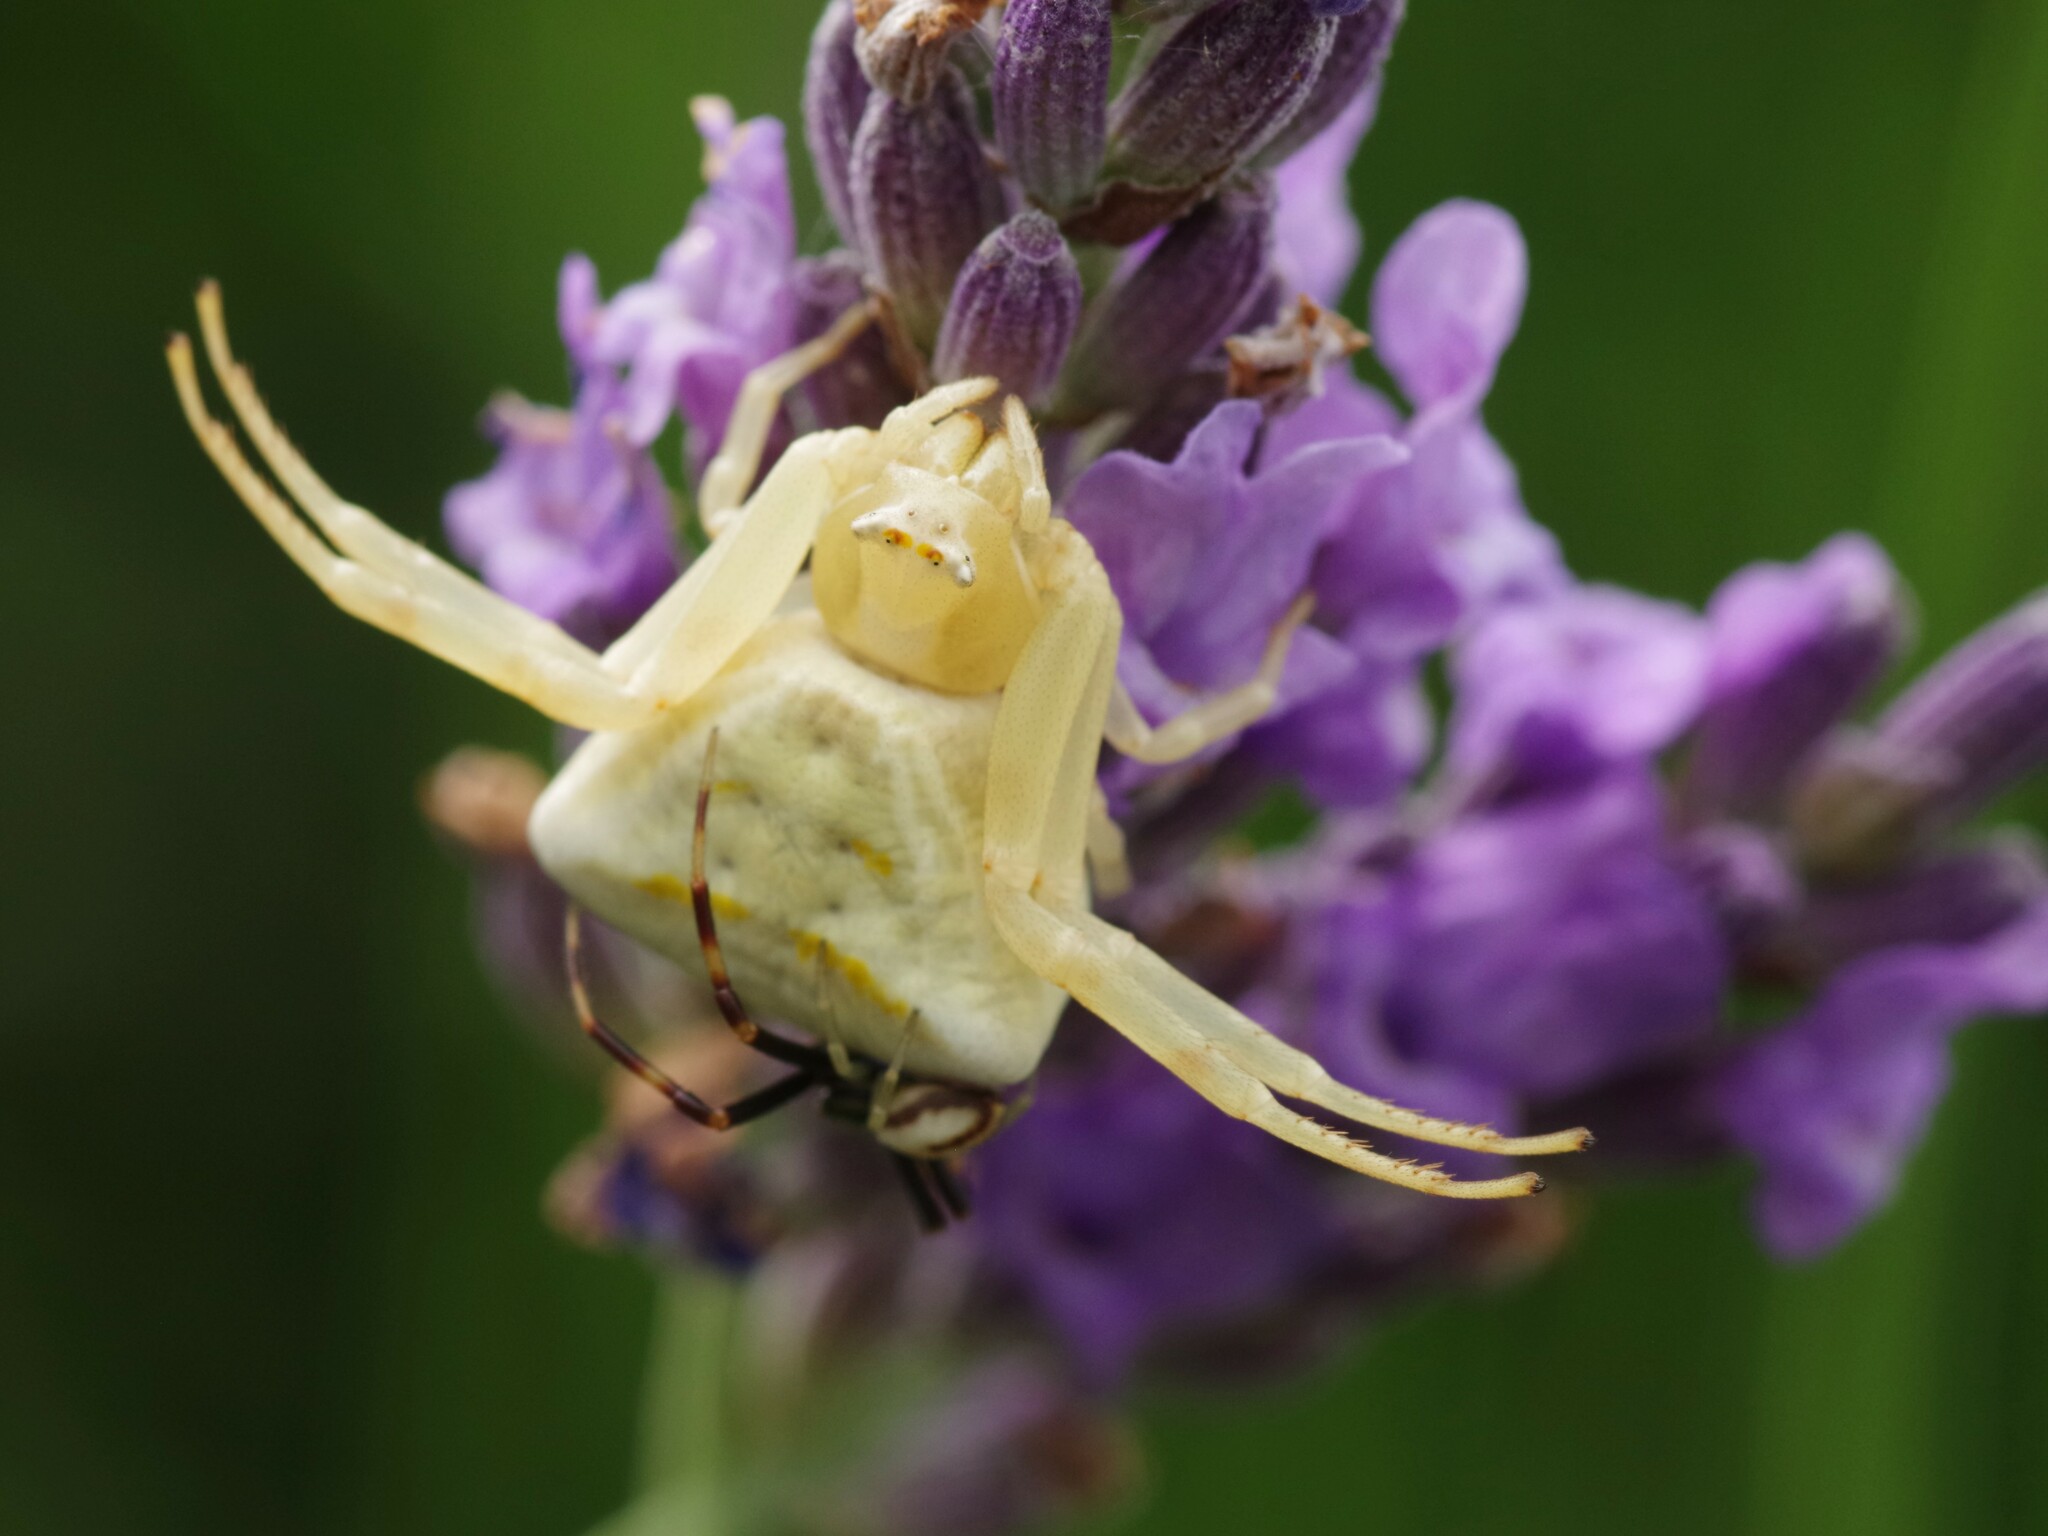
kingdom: Animalia
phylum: Arthropoda
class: Arachnida
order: Araneae
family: Thomisidae
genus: Thomisus
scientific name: Thomisus onustus
